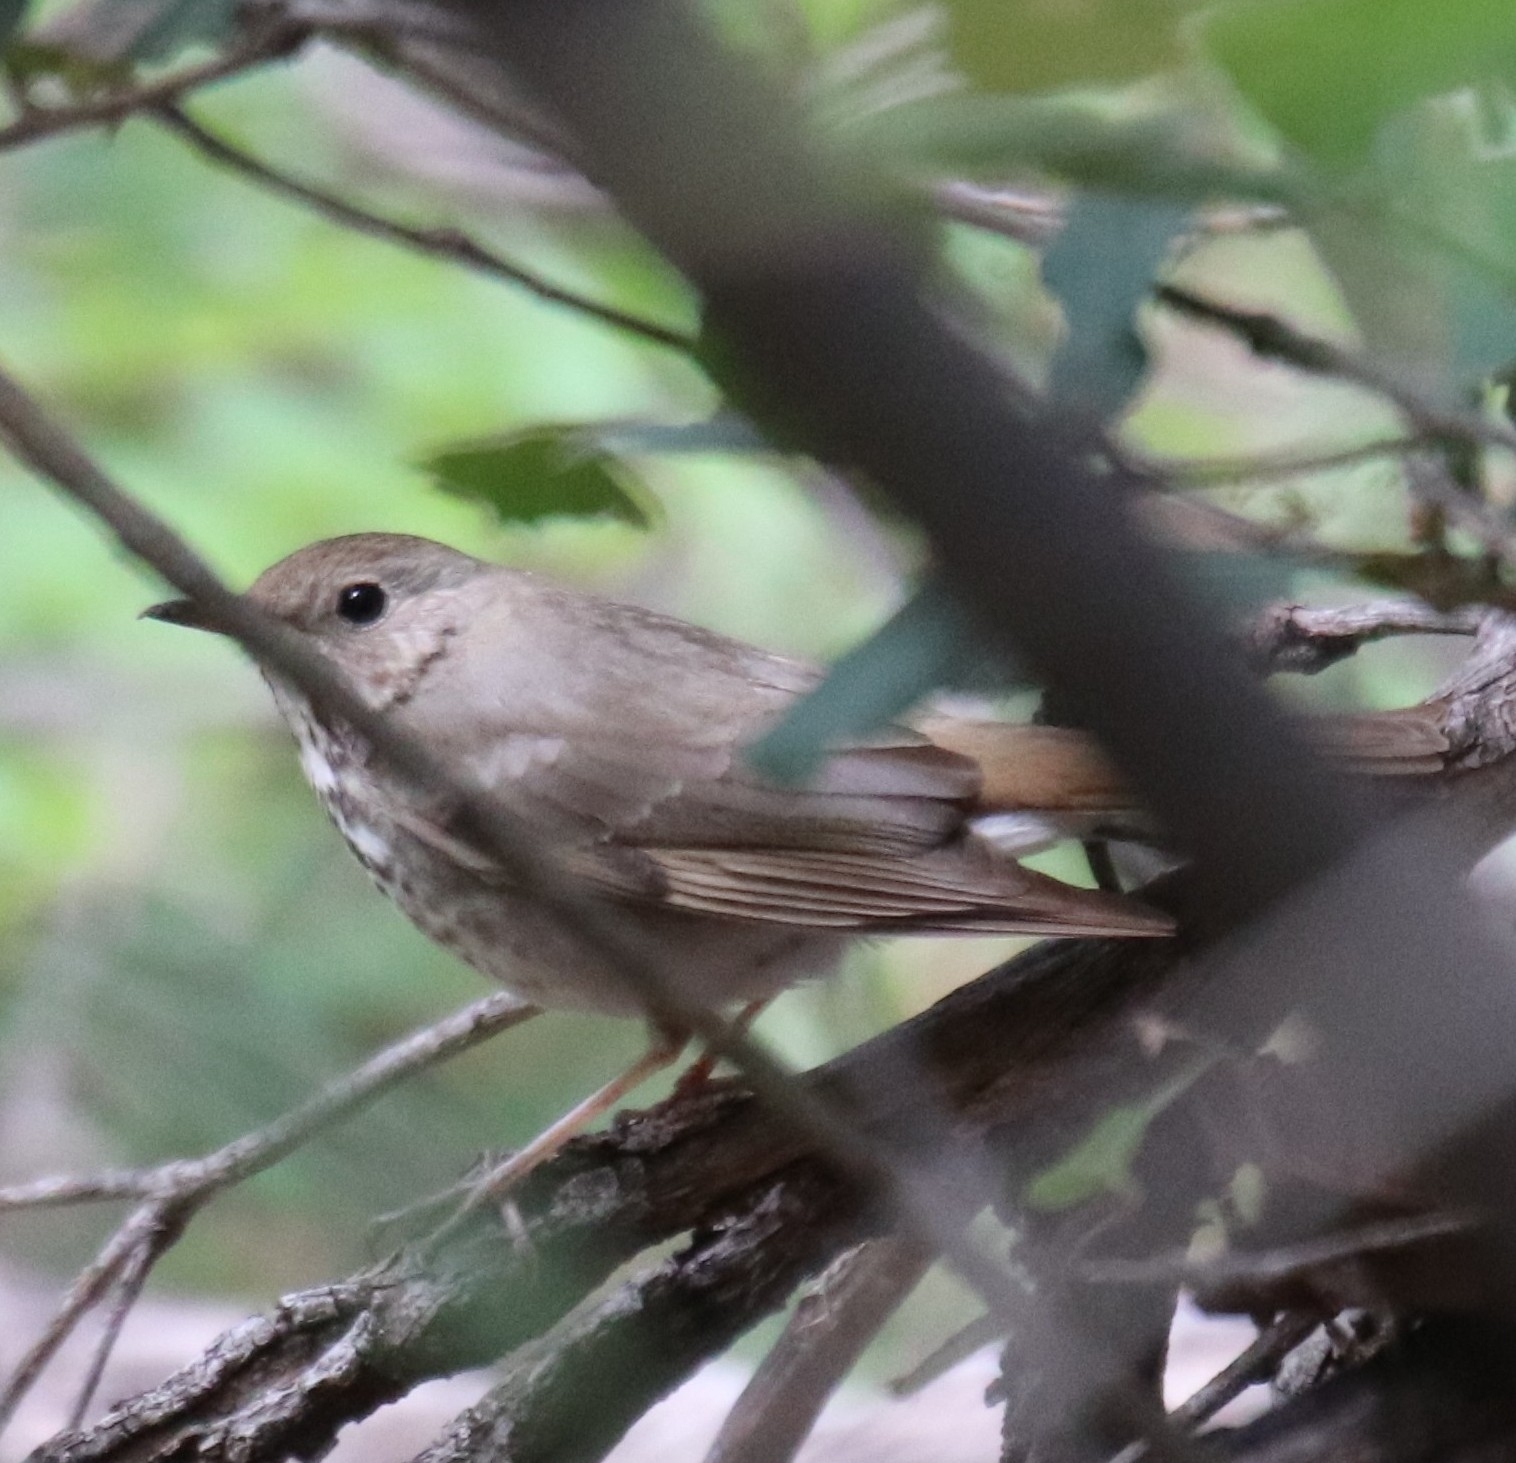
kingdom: Animalia
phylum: Chordata
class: Aves
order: Passeriformes
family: Turdidae
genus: Catharus
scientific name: Catharus guttatus
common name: Hermit thrush
